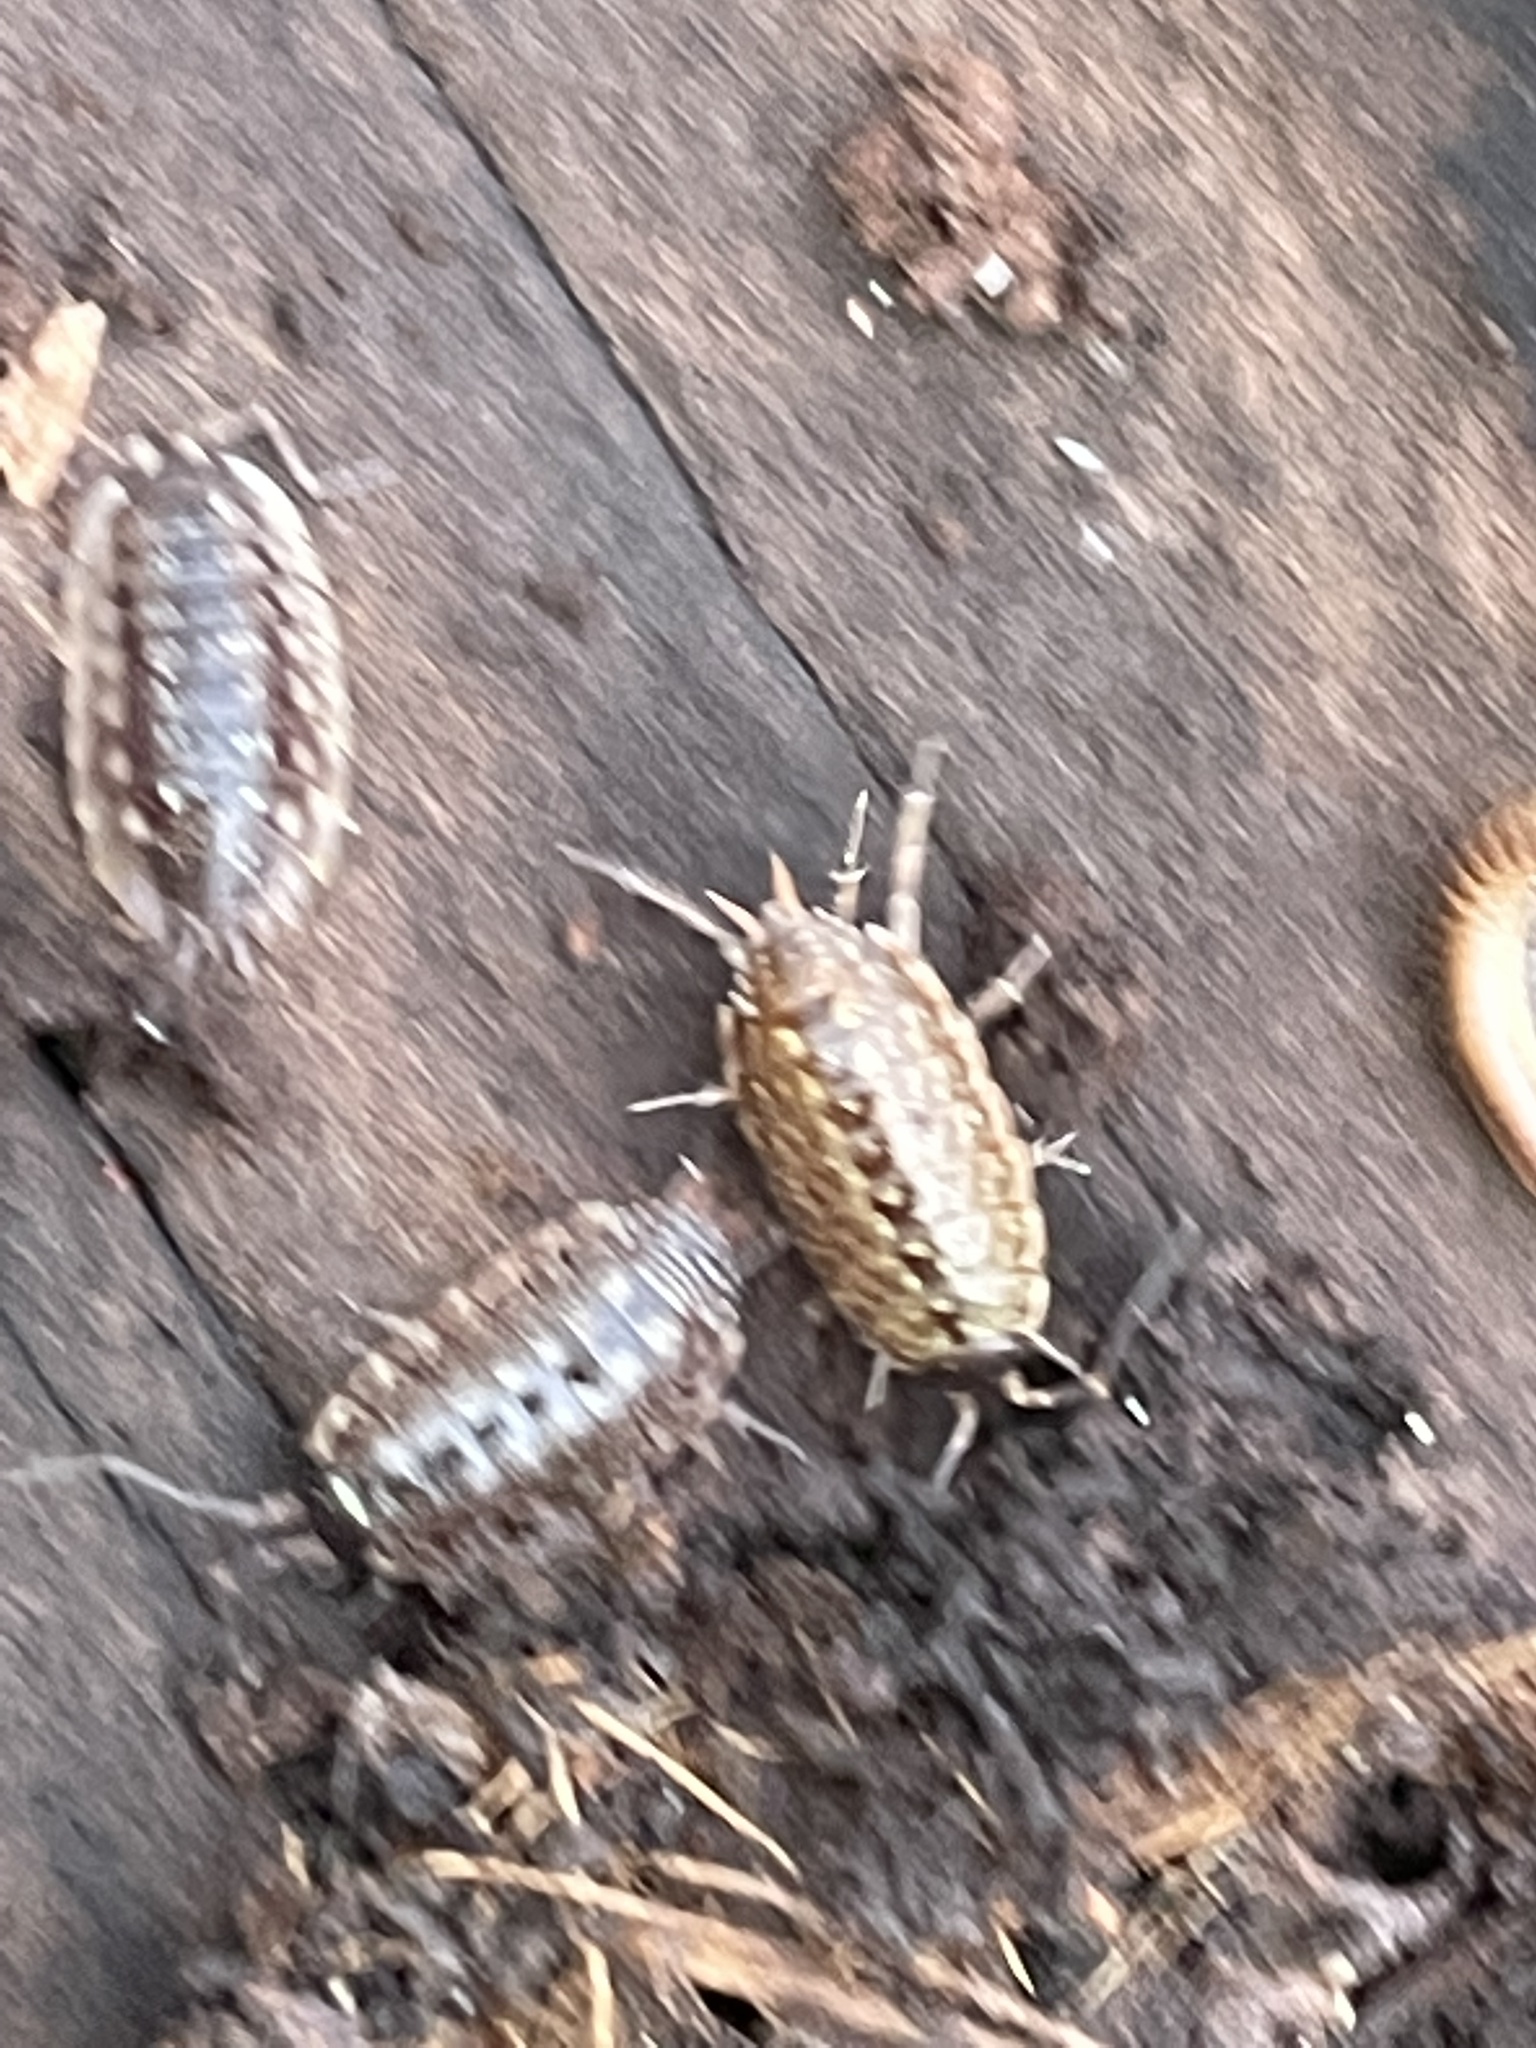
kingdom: Animalia
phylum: Arthropoda
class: Malacostraca
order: Isopoda
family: Philosciidae
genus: Philoscia
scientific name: Philoscia muscorum
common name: Common striped woodlouse
